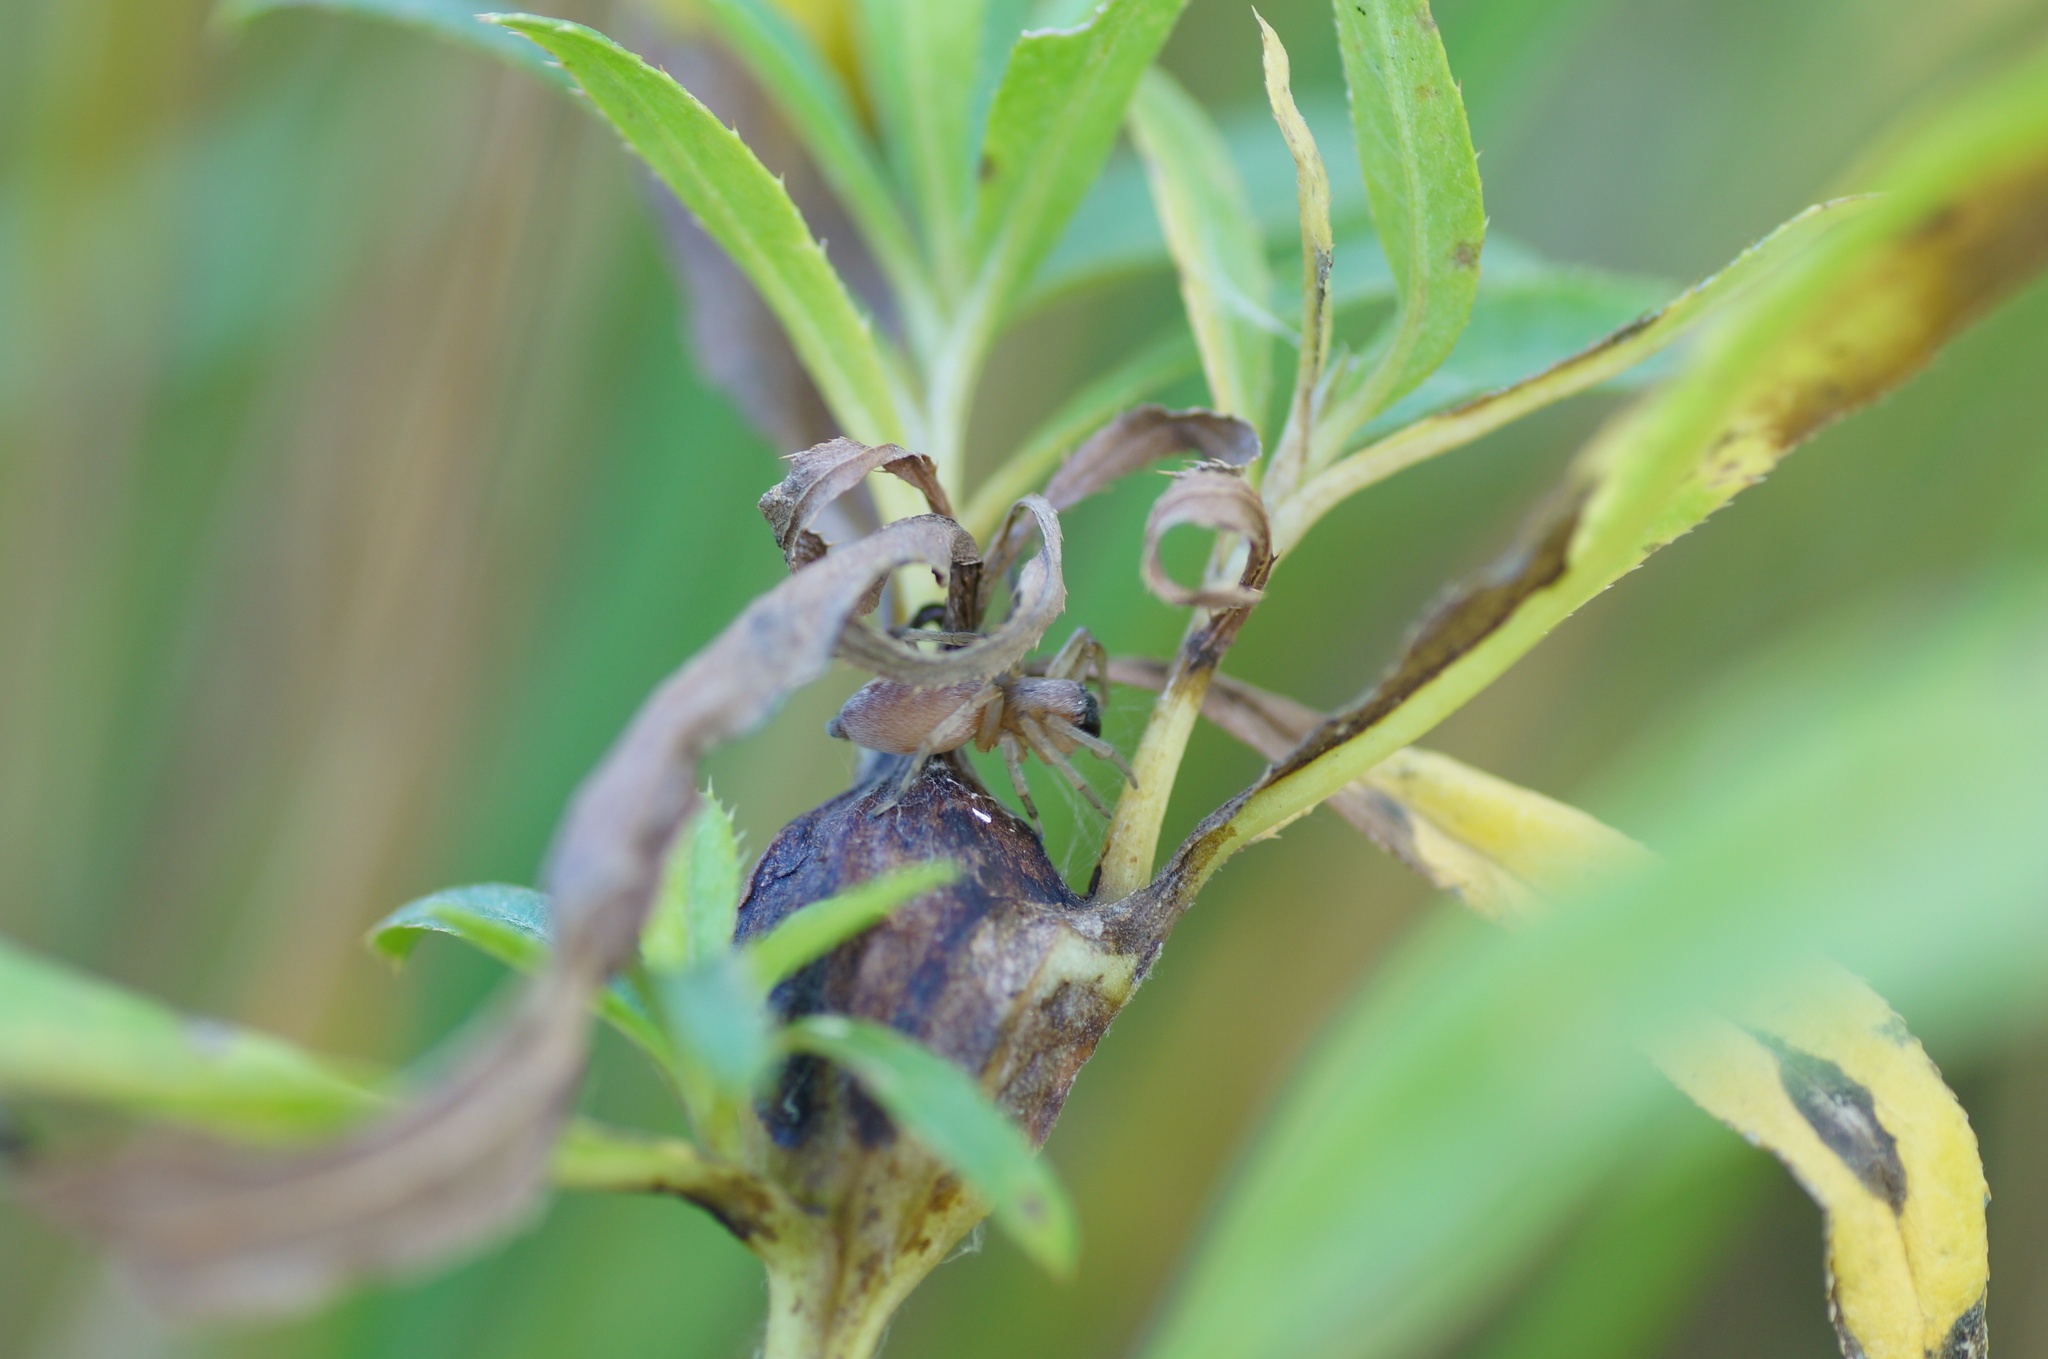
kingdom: Animalia
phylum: Arthropoda
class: Insecta
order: Diptera
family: Tephritidae
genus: Urophora
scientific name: Urophora cardui
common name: Fruit fly
